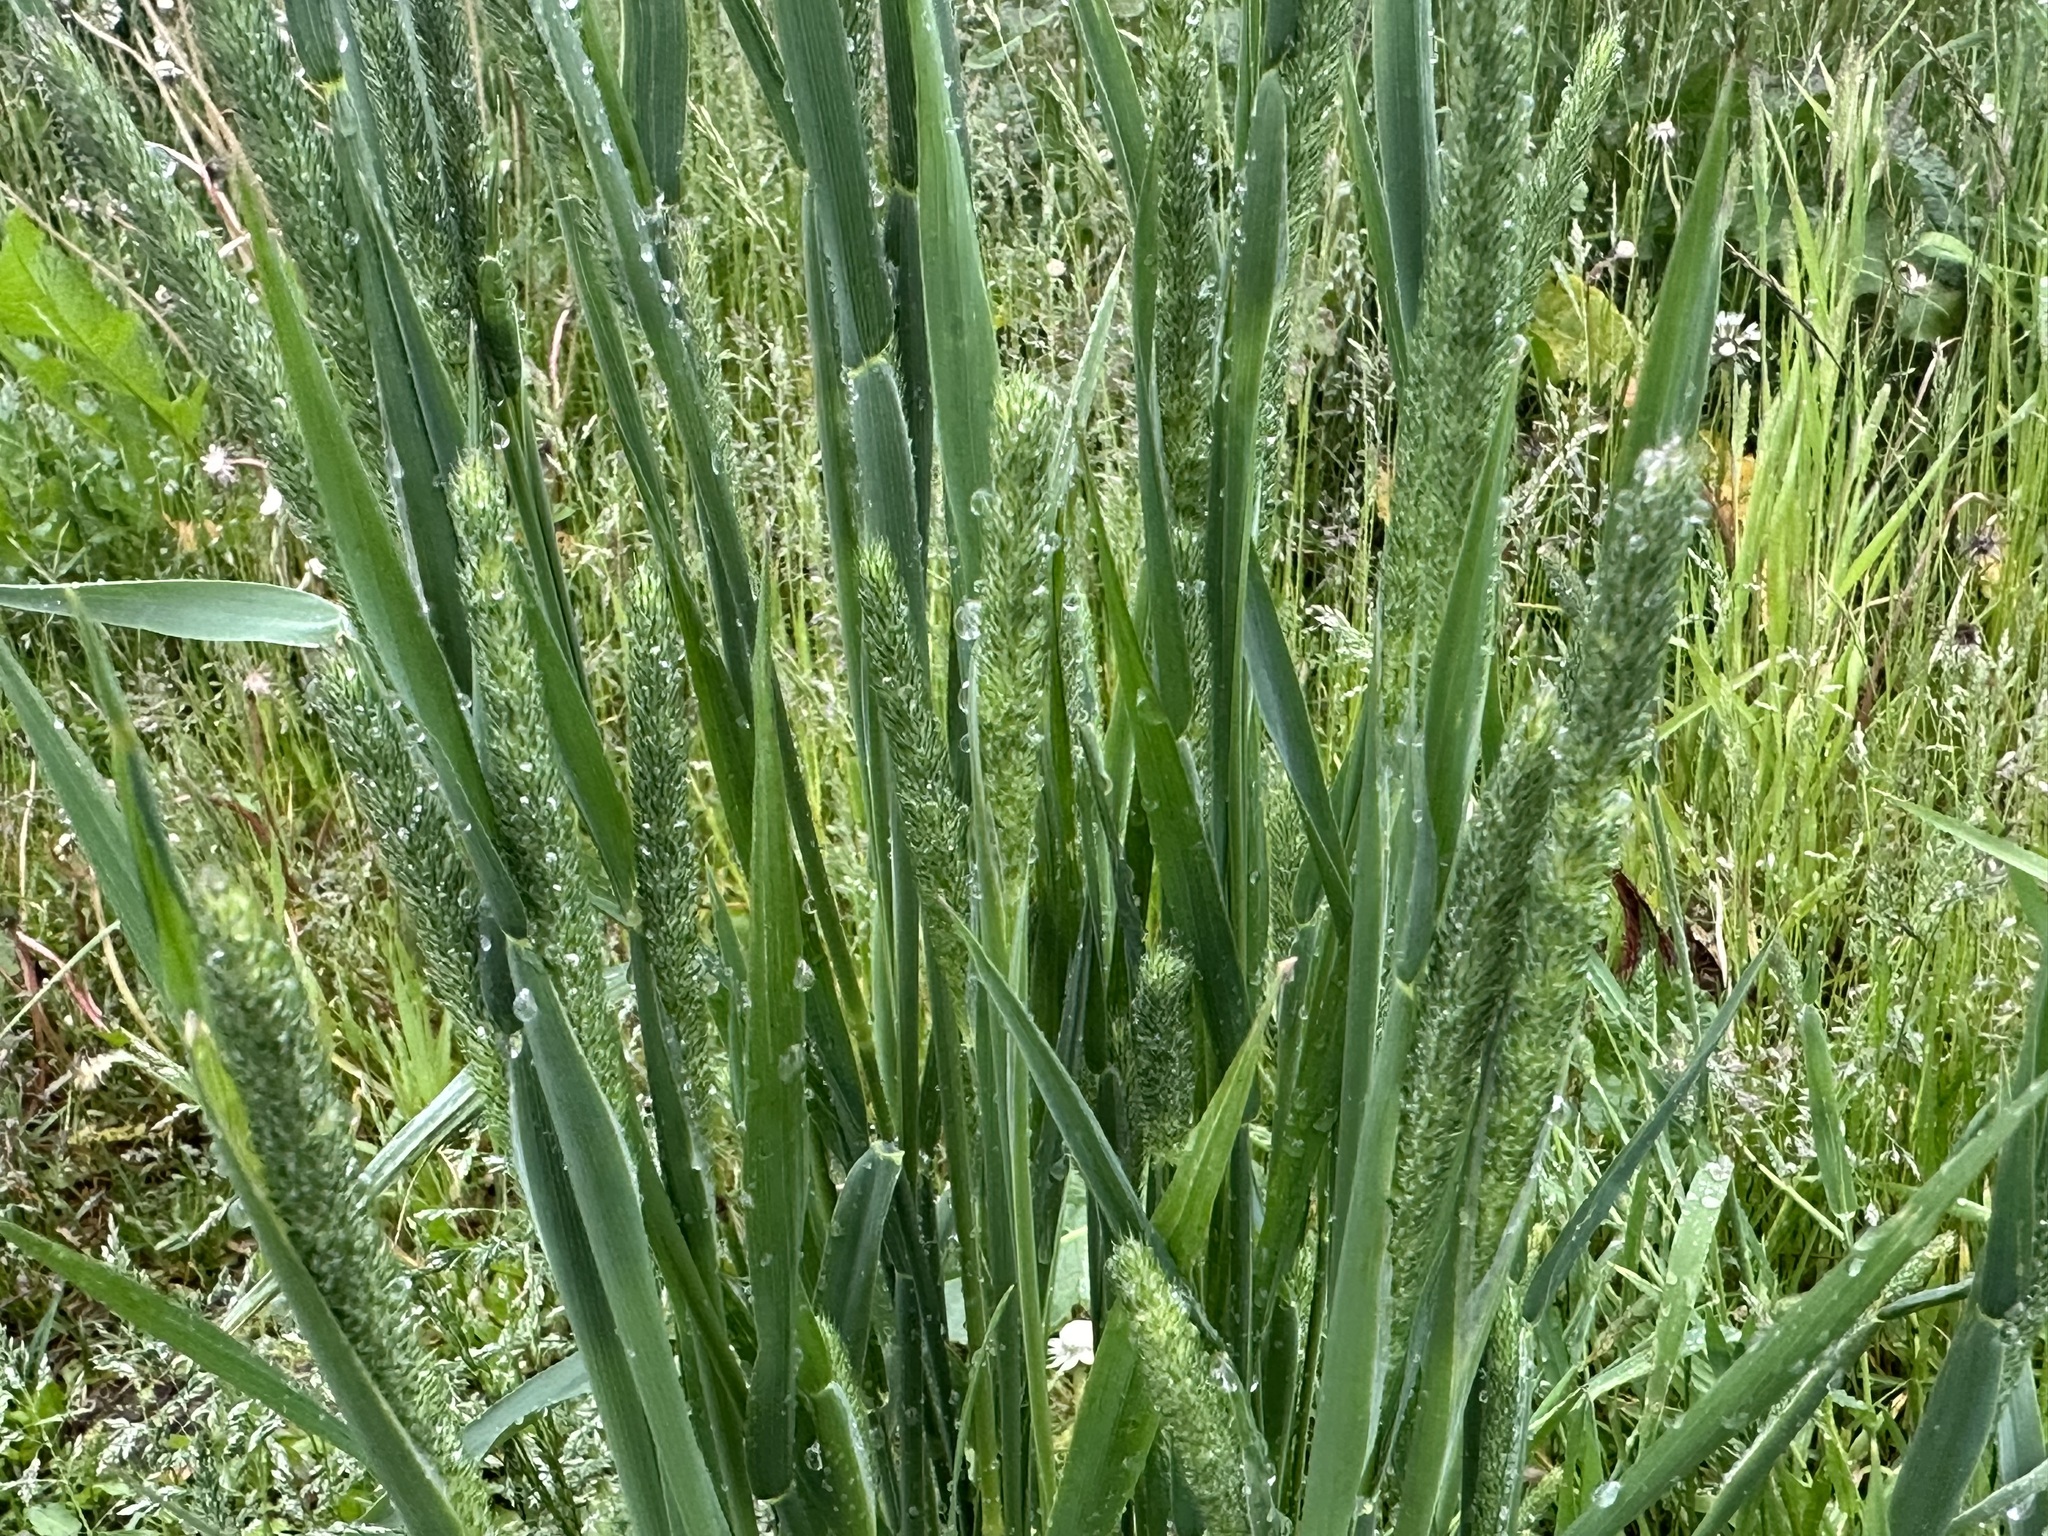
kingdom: Plantae
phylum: Tracheophyta
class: Liliopsida
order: Poales
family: Poaceae
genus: Phleum
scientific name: Phleum pratense
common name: Timothy grass
